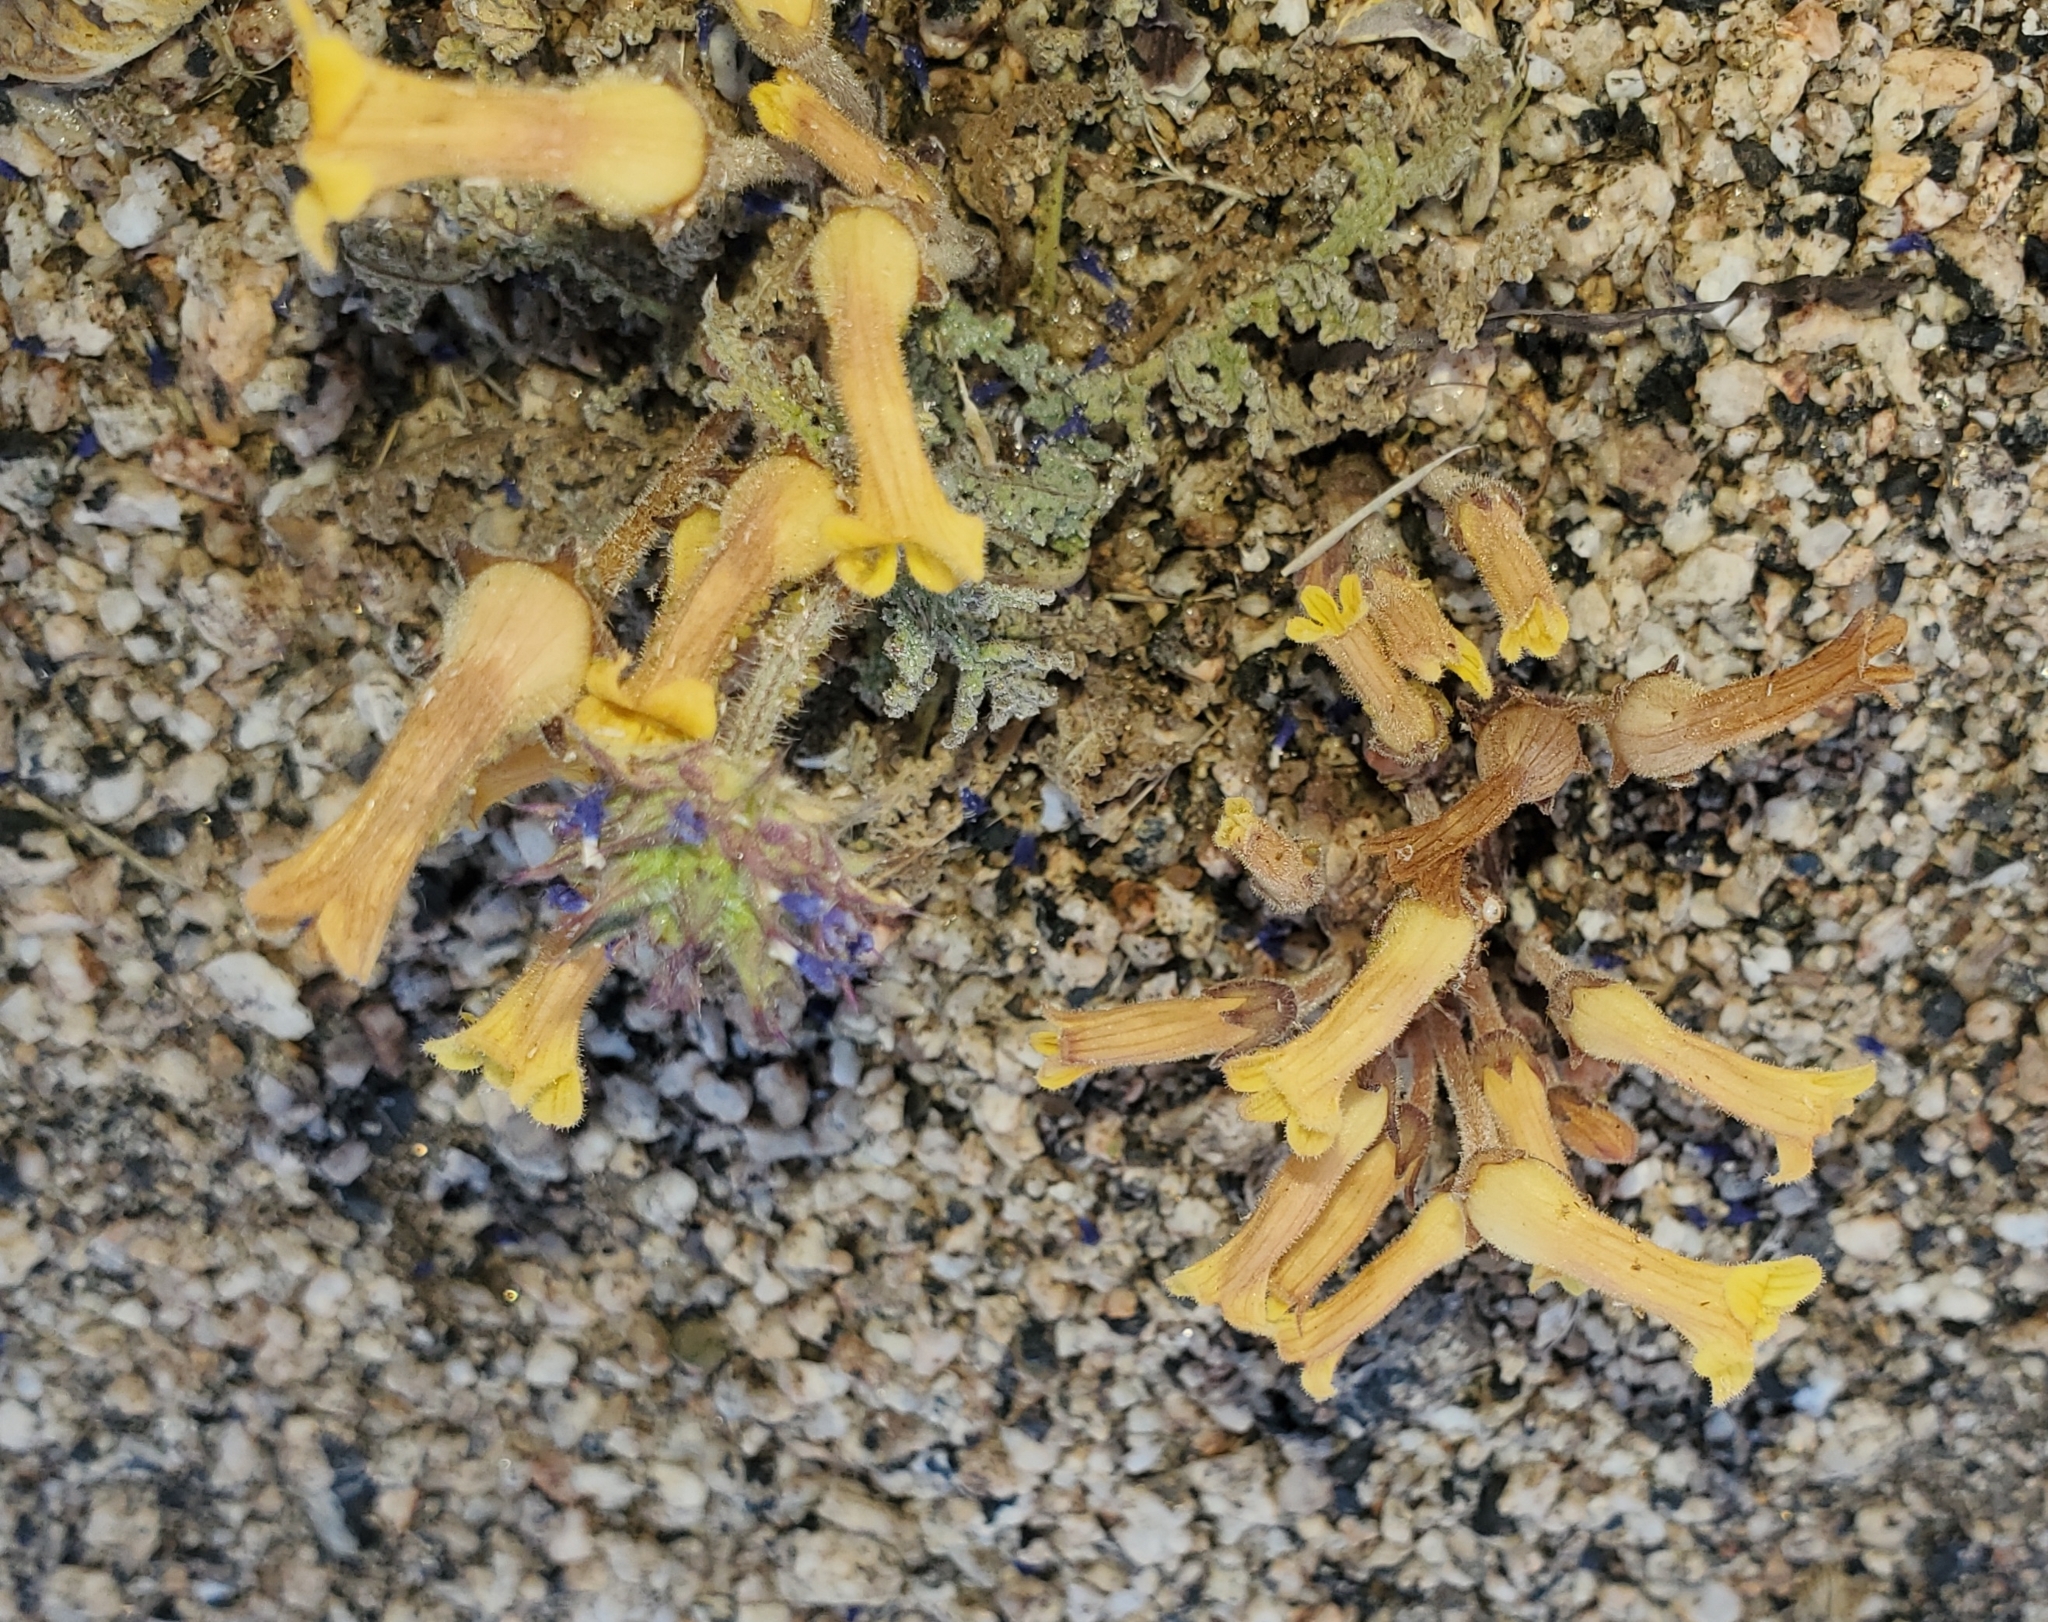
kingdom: Plantae
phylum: Tracheophyta
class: Magnoliopsida
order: Lamiales
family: Orobanchaceae
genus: Aphyllon
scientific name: Aphyllon franciscanum
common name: San francisco broomrape
